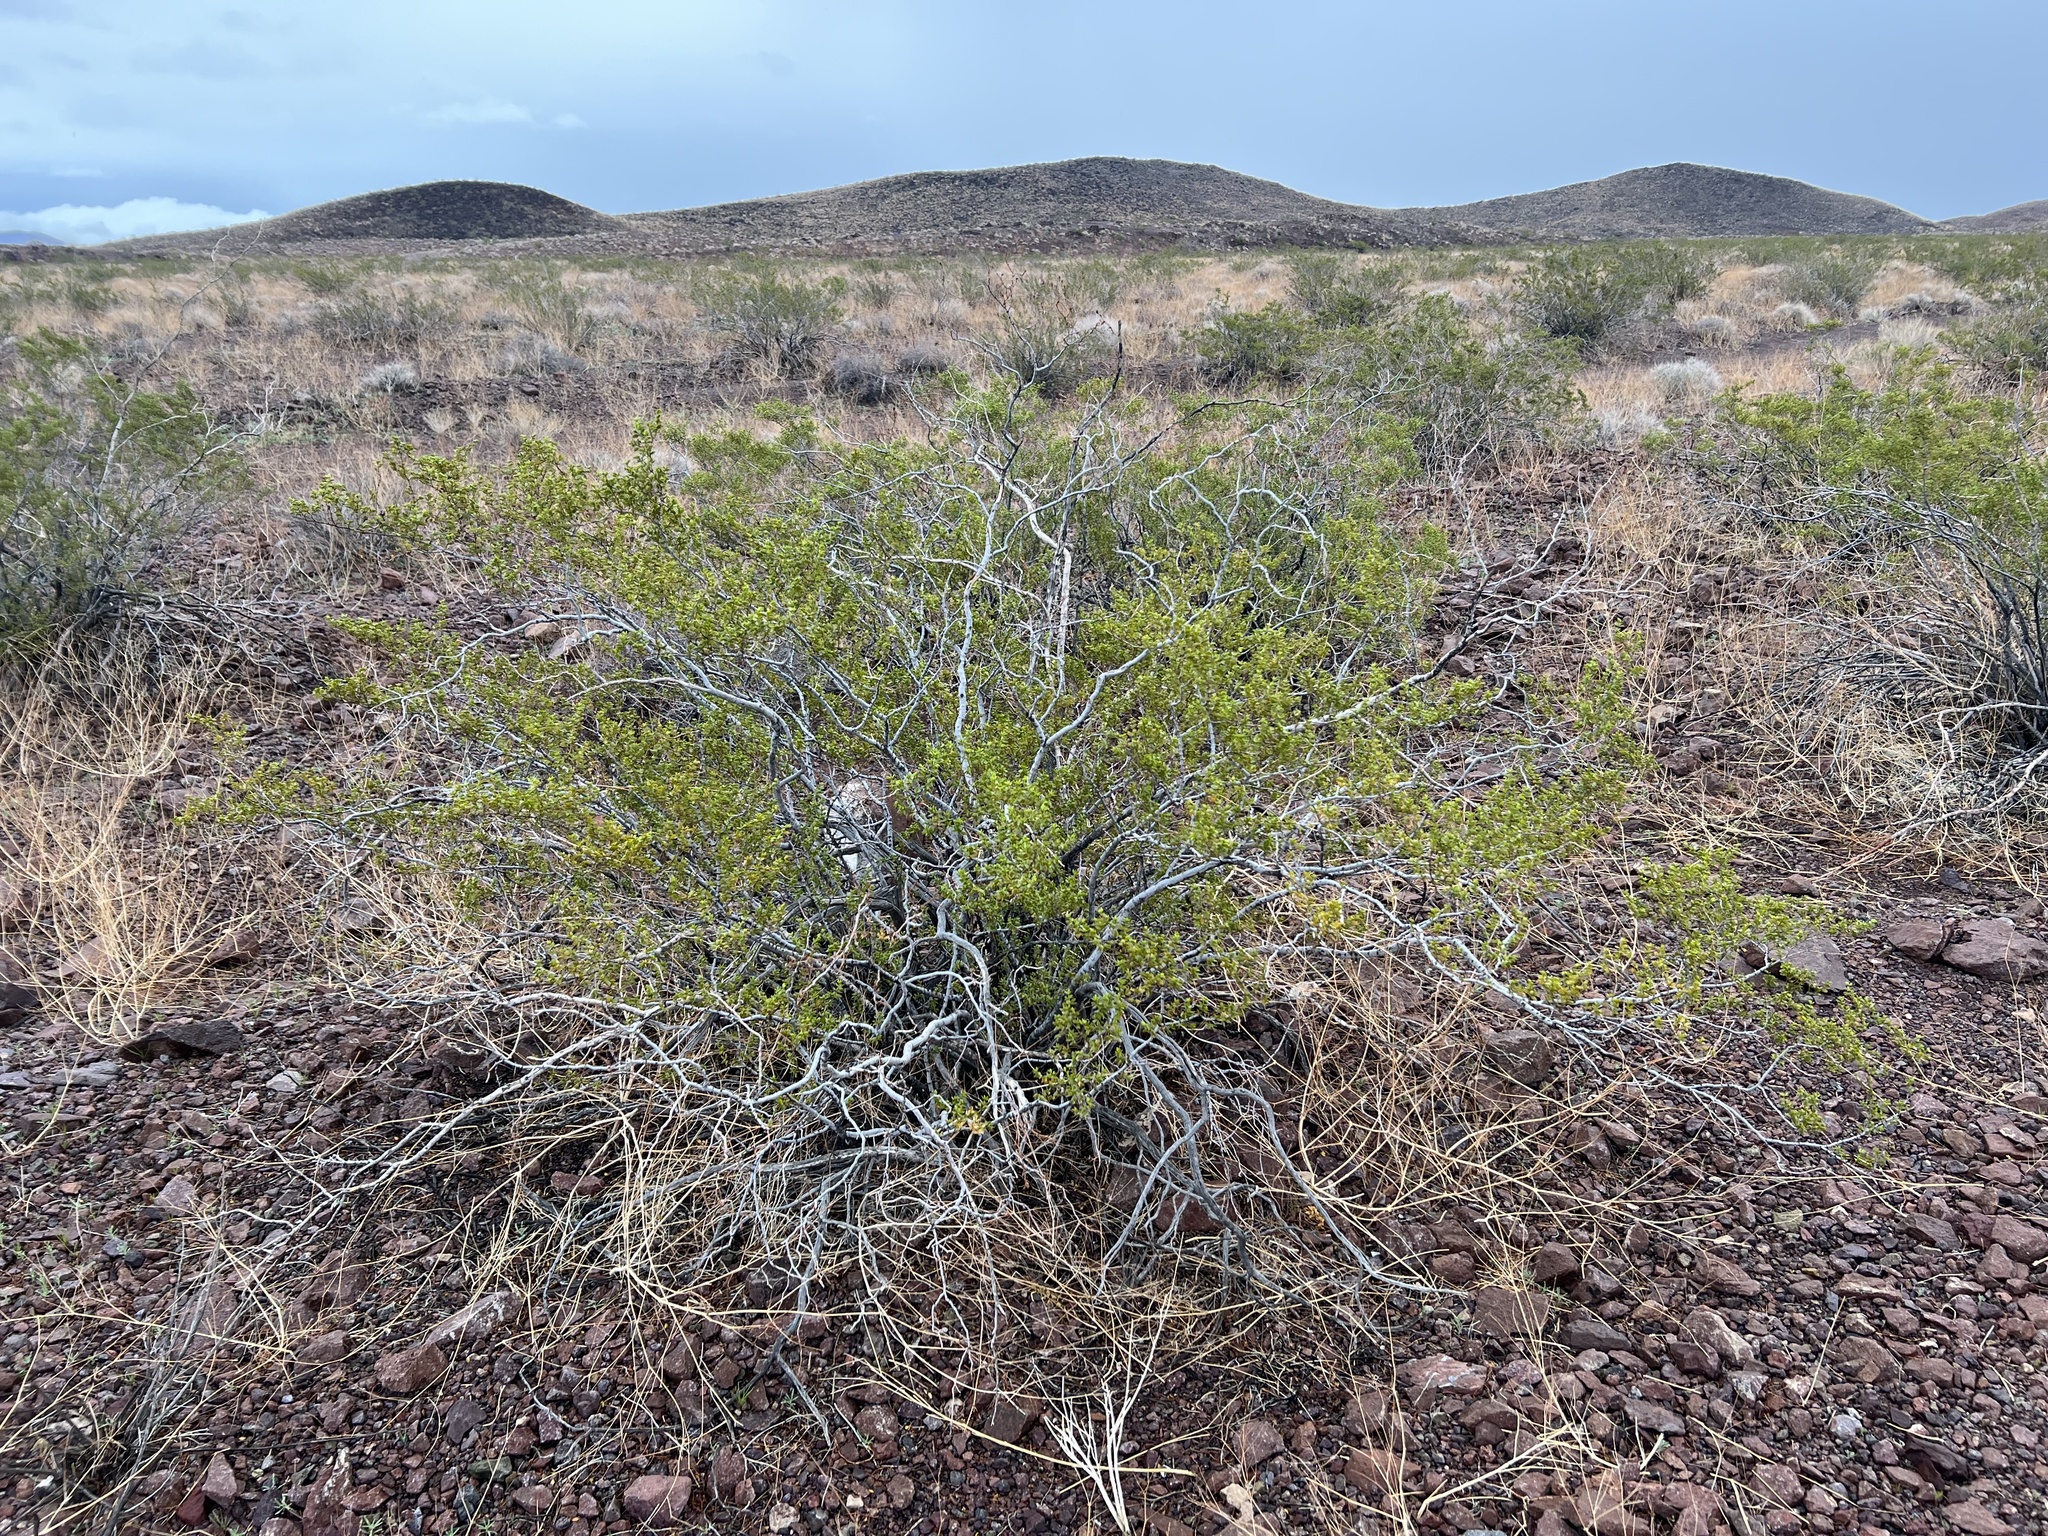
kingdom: Plantae
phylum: Tracheophyta
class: Magnoliopsida
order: Zygophyllales
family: Zygophyllaceae
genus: Larrea
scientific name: Larrea tridentata
